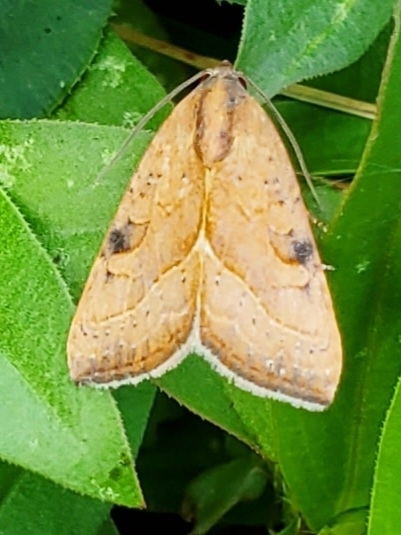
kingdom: Animalia
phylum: Arthropoda
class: Insecta
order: Lepidoptera
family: Noctuidae
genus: Galgula
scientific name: Galgula partita
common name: Wedgeling
